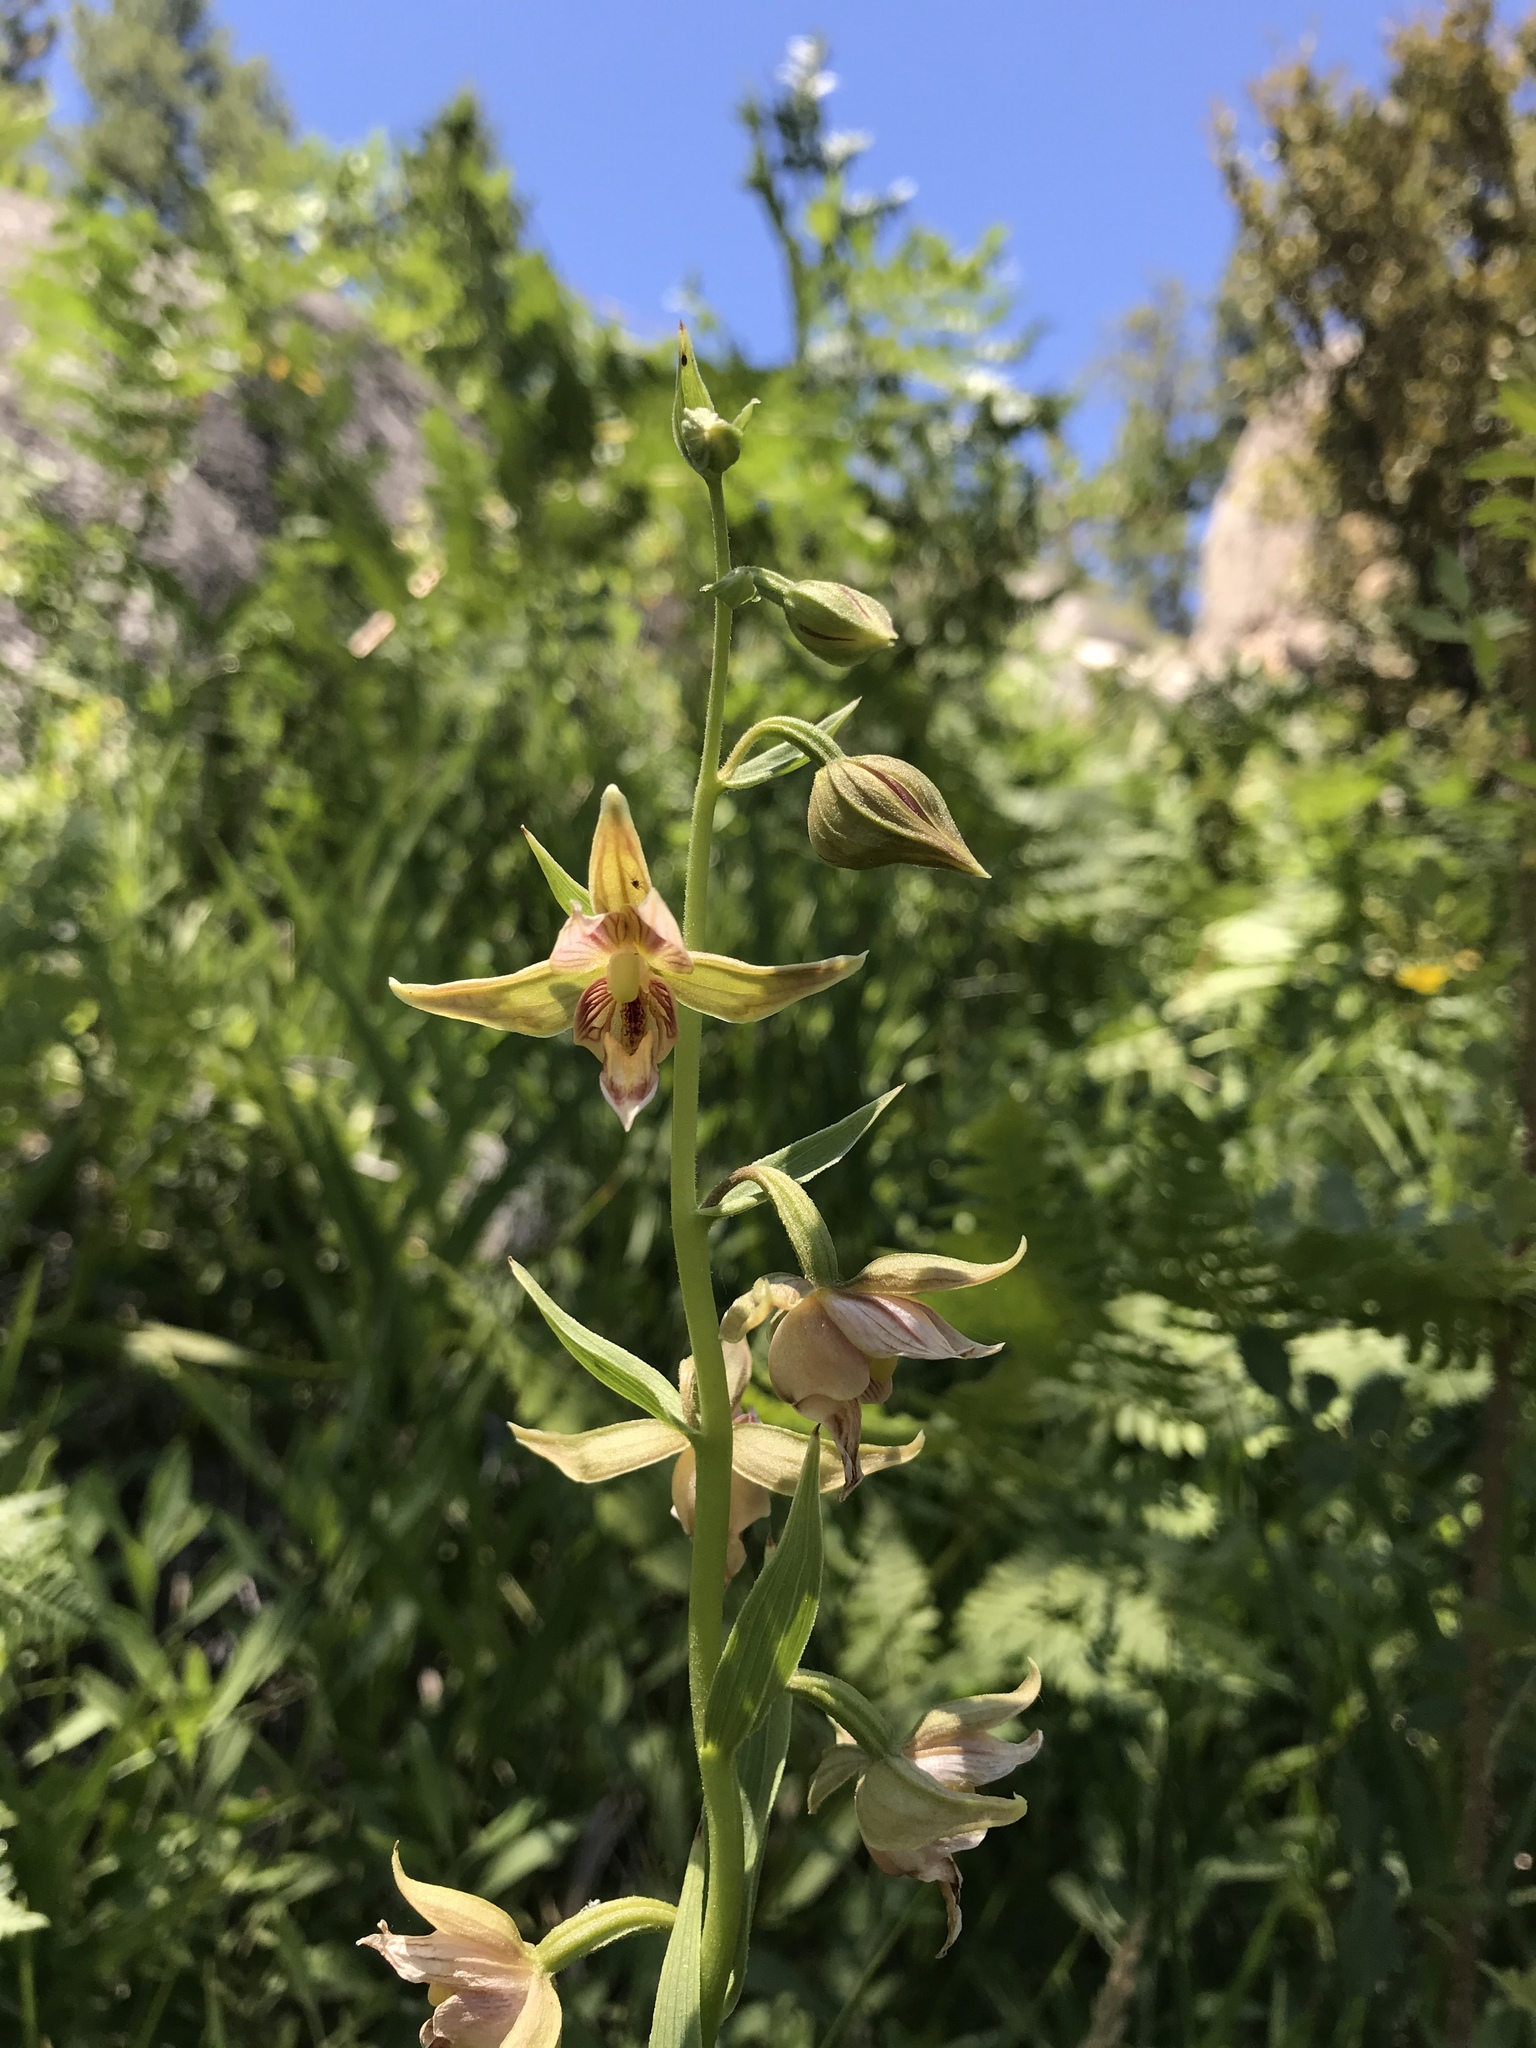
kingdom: Plantae
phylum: Tracheophyta
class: Liliopsida
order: Asparagales
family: Orchidaceae
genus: Epipactis
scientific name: Epipactis gigantea
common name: Chatterbox
